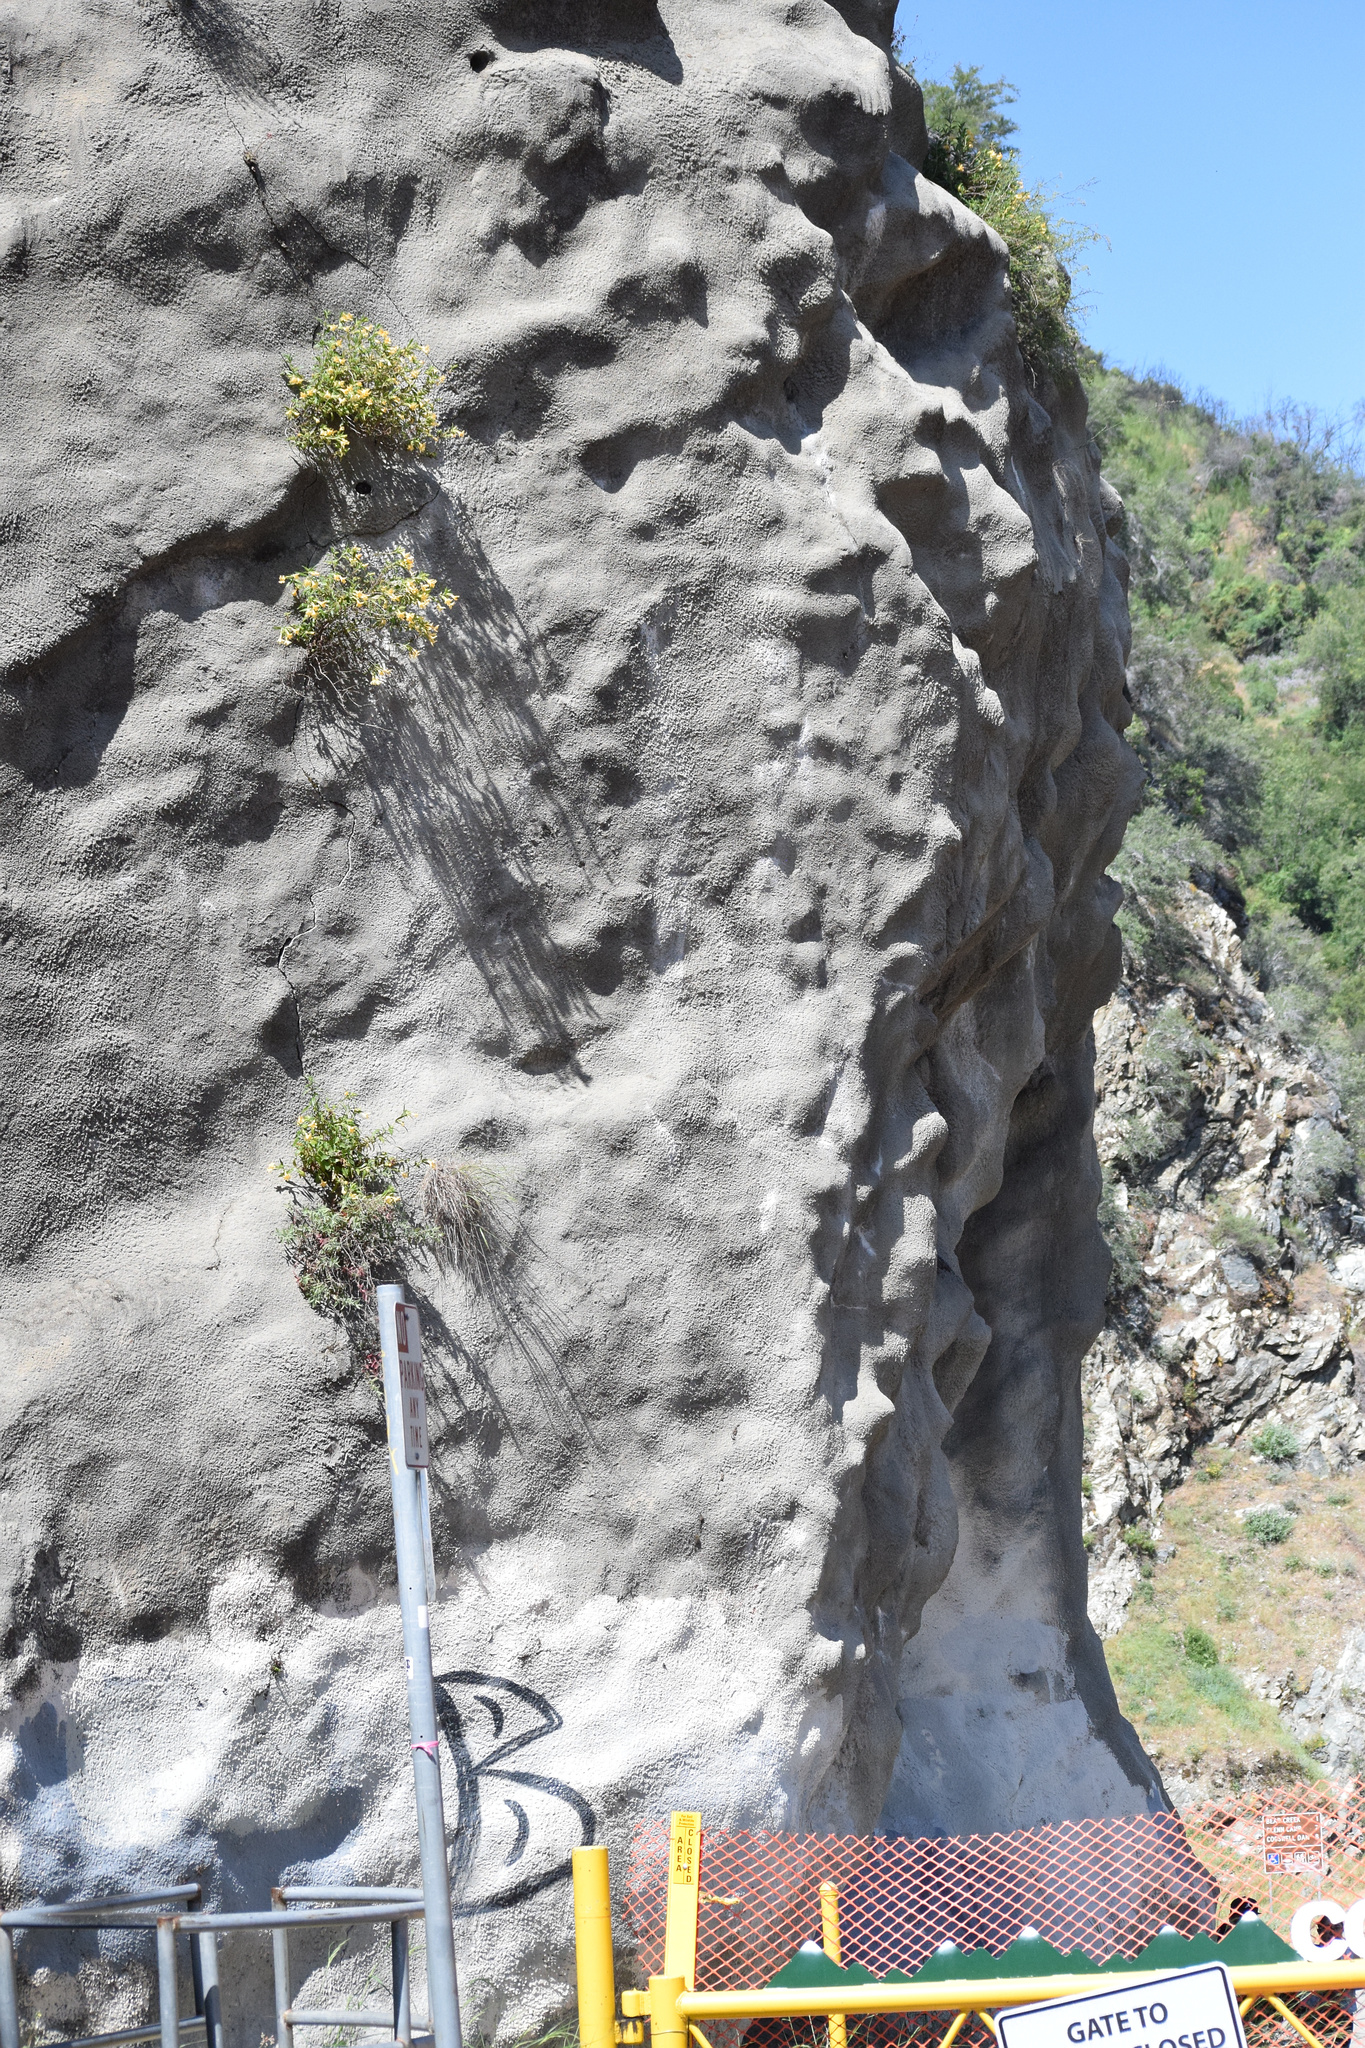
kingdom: Plantae
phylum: Tracheophyta
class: Magnoliopsida
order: Lamiales
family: Phrymaceae
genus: Diplacus
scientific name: Diplacus longiflorus
